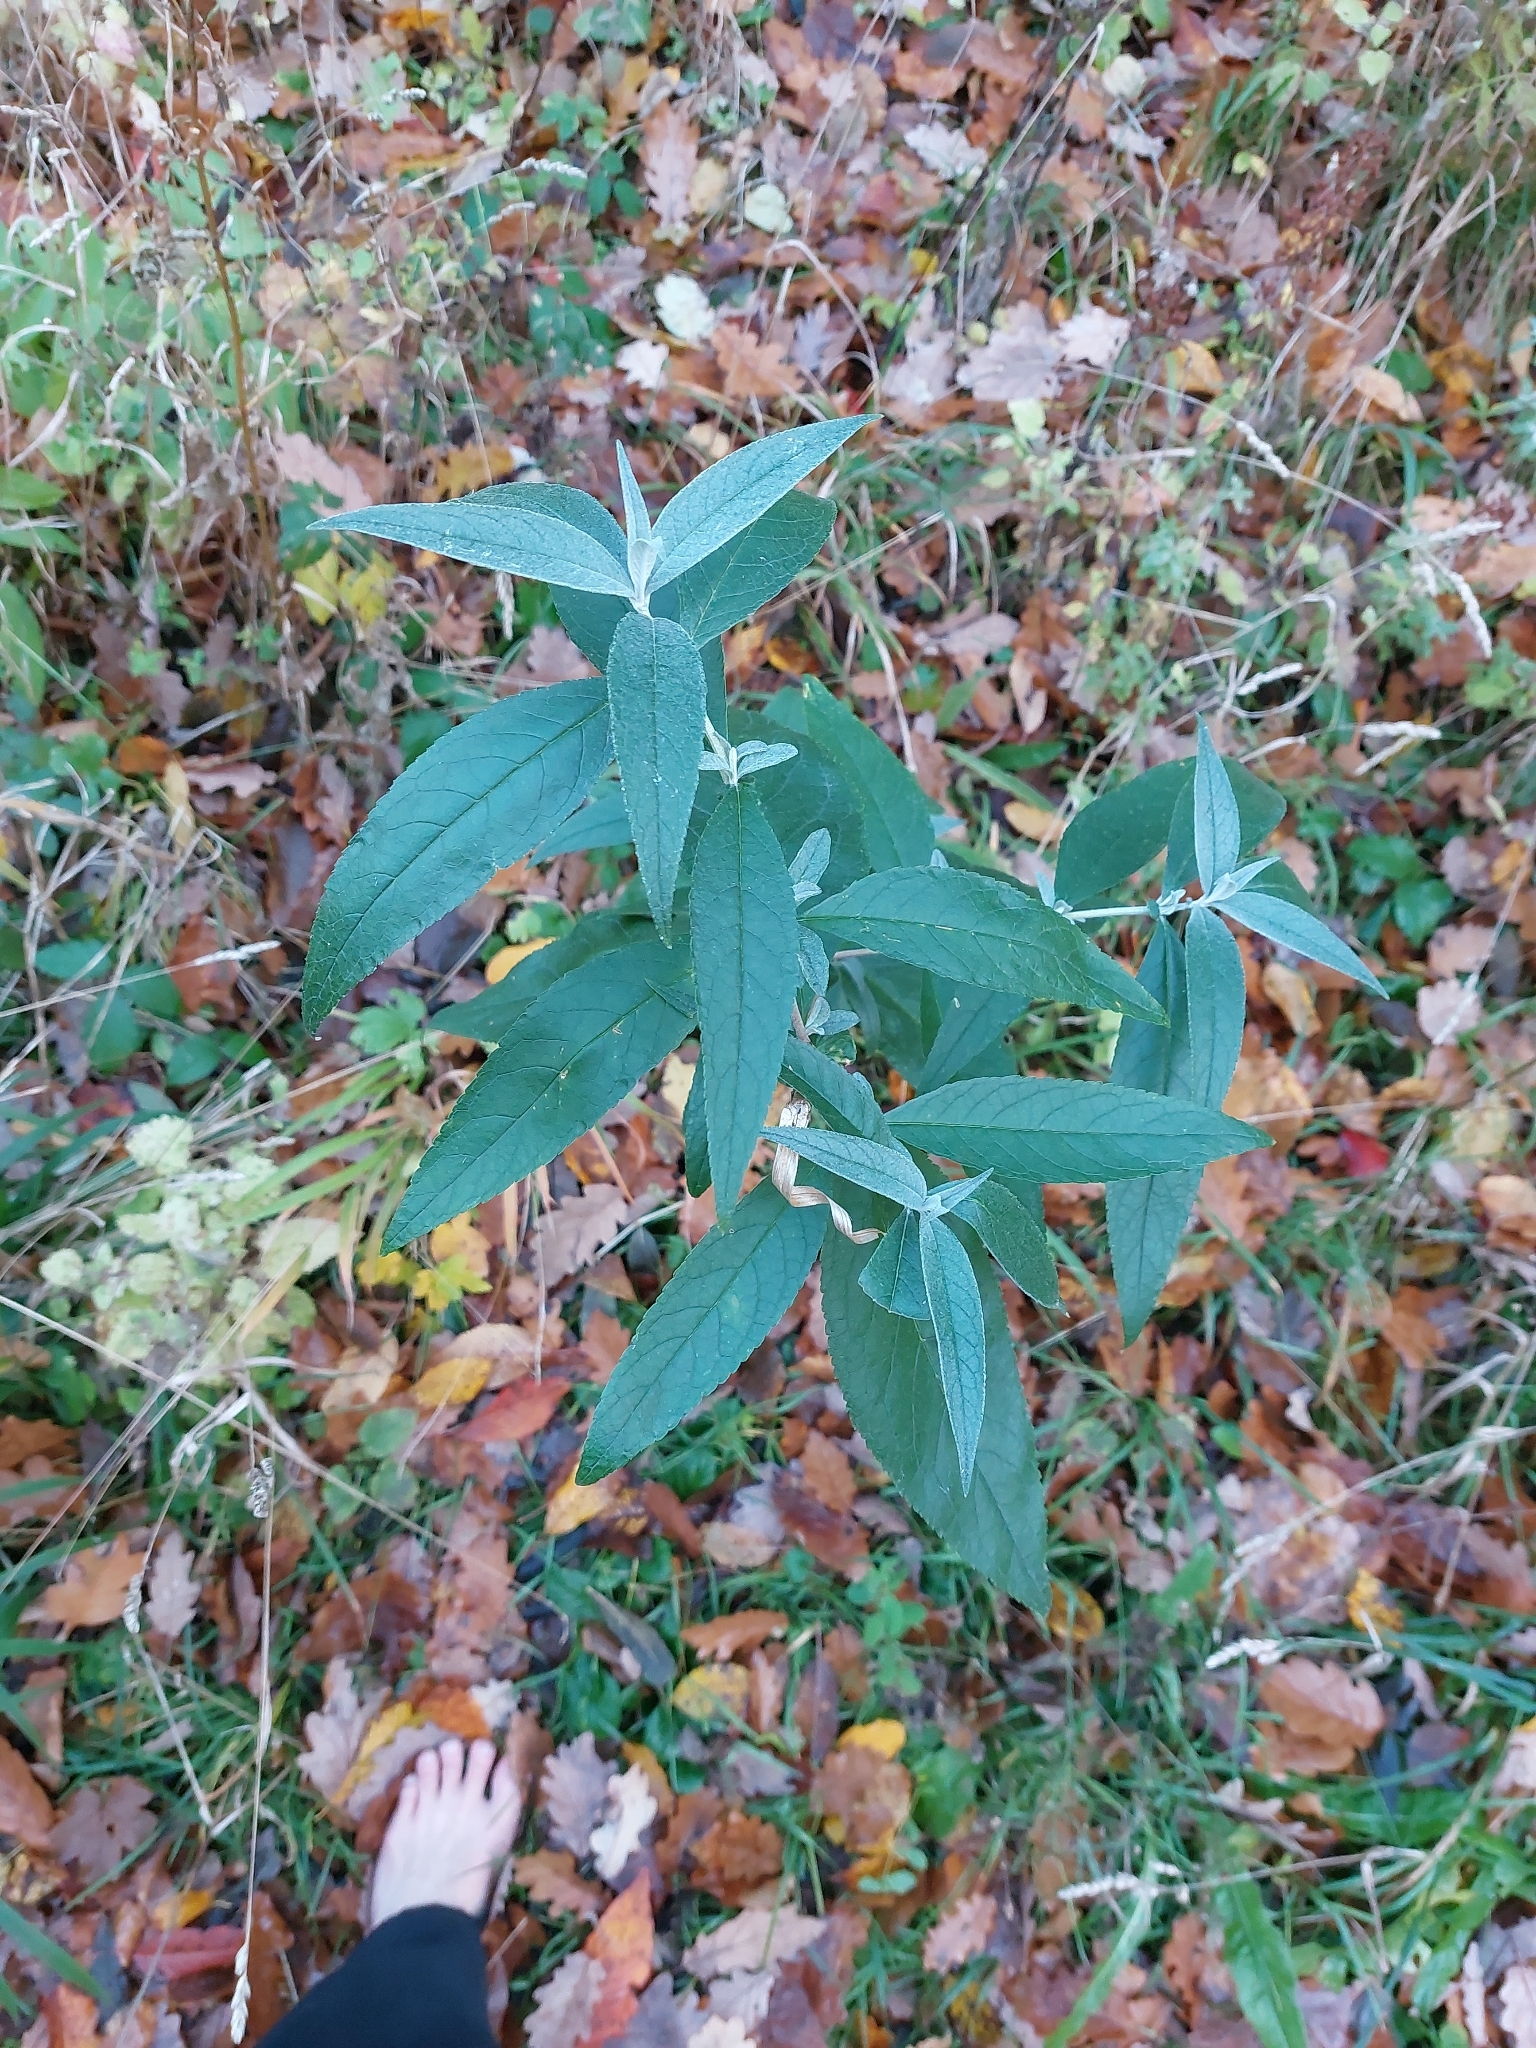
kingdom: Plantae
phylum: Tracheophyta
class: Magnoliopsida
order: Lamiales
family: Scrophulariaceae
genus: Buddleja
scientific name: Buddleja davidii
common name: Butterfly-bush
